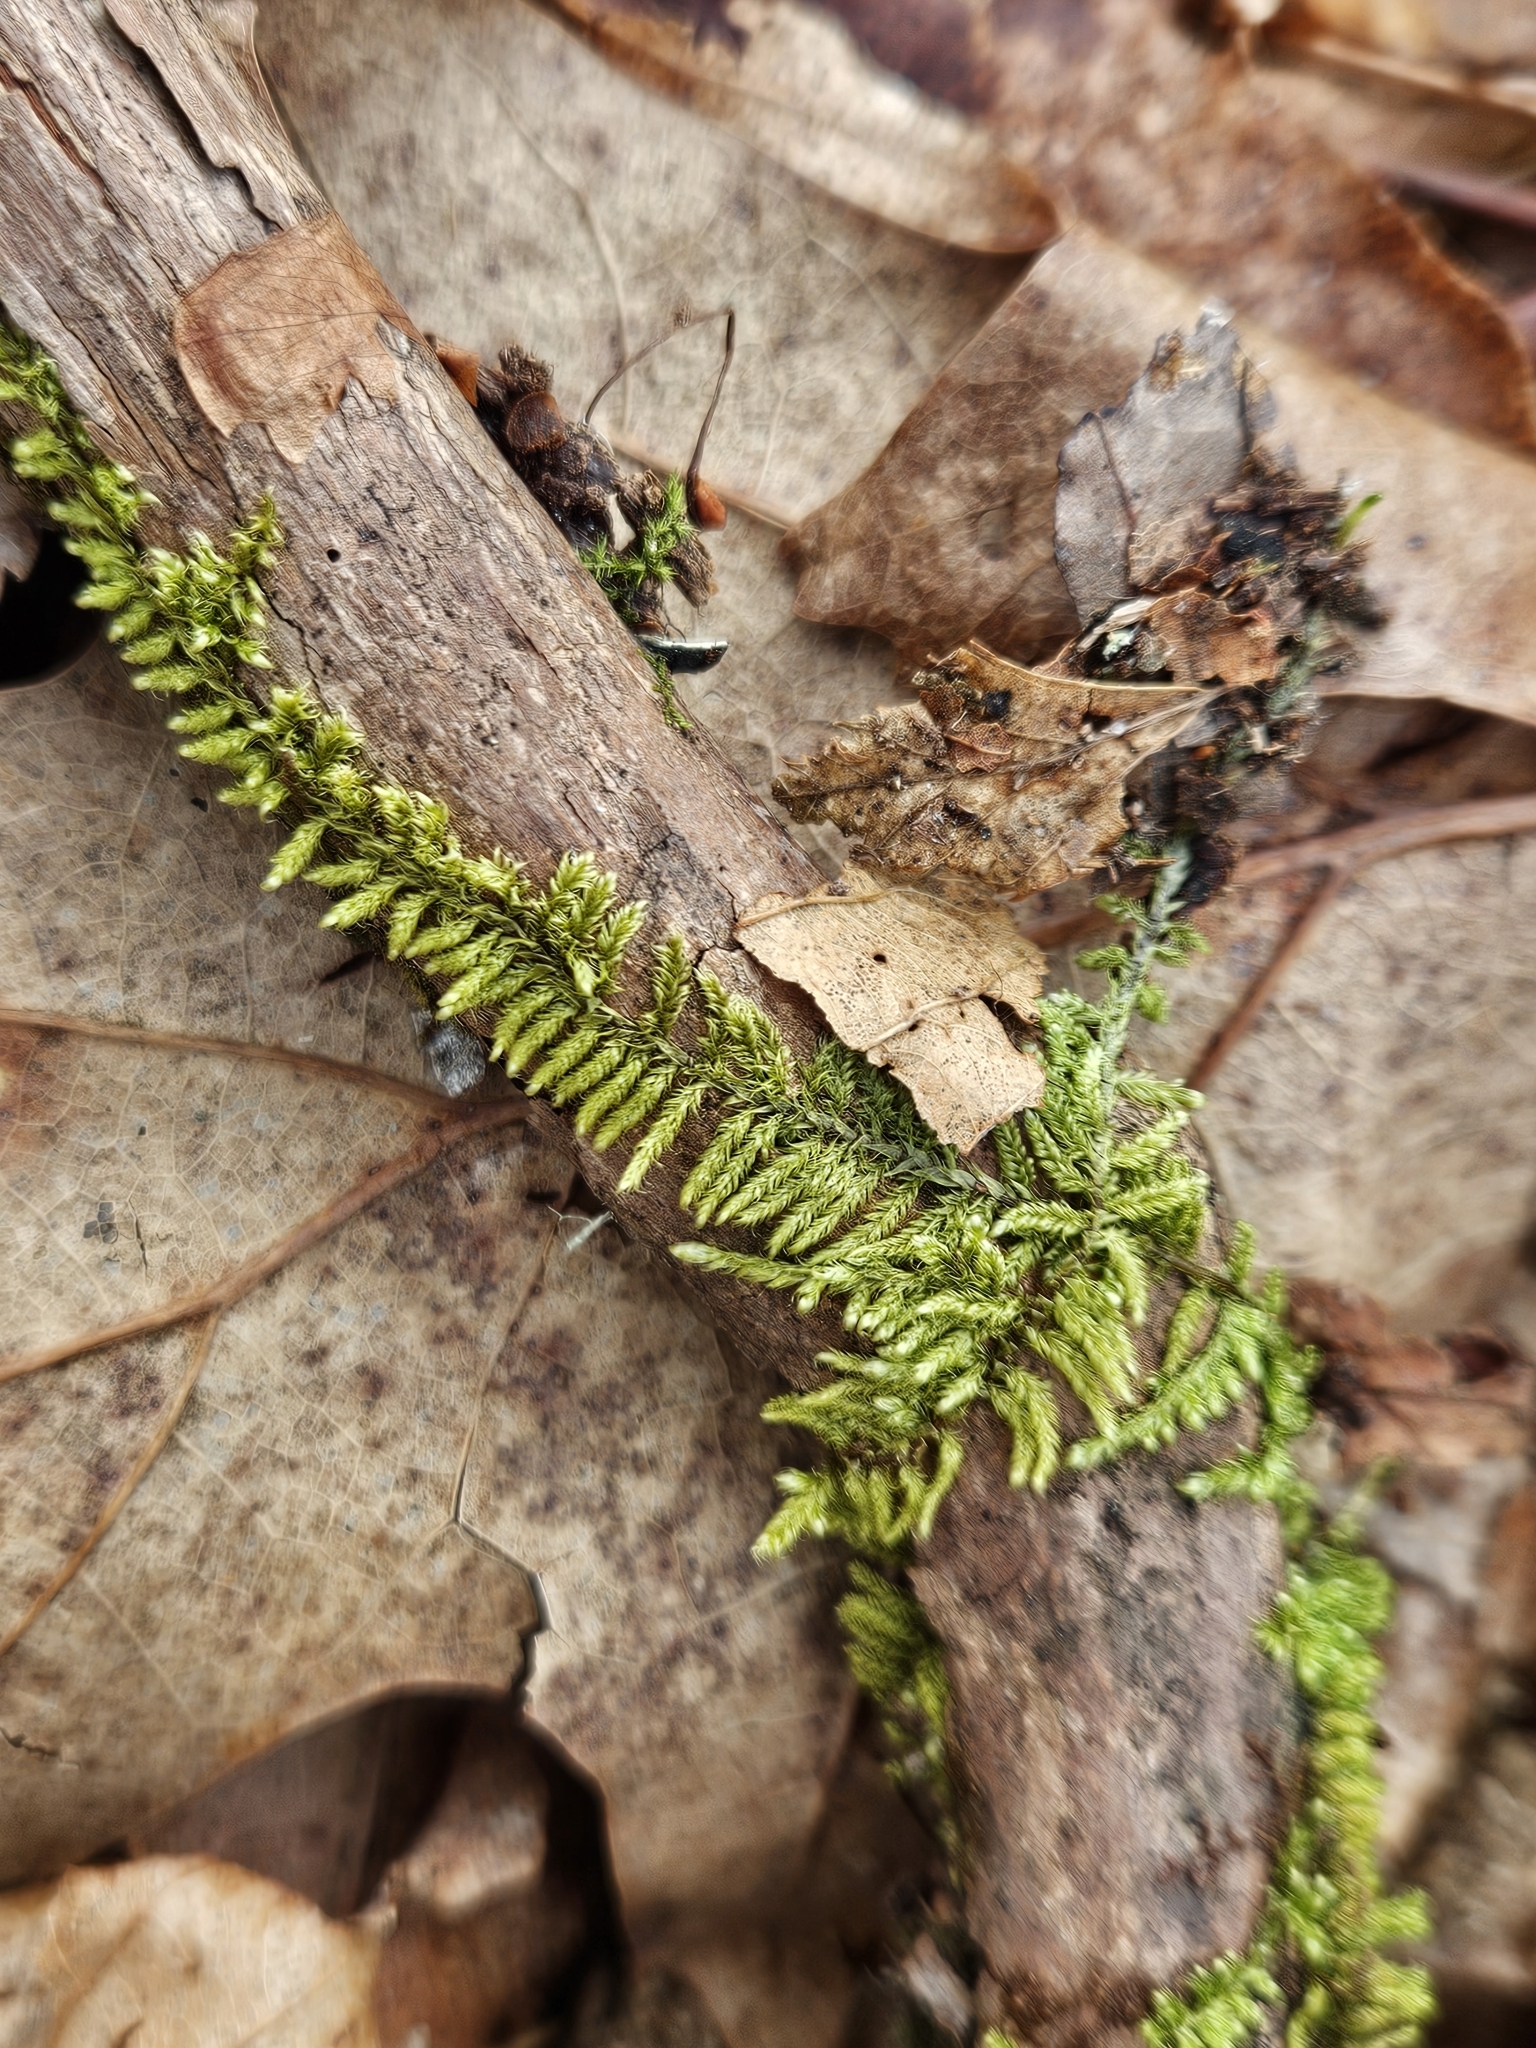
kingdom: Plantae
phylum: Bryophyta
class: Bryopsida
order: Hypnales
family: Callicladiaceae
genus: Callicladium
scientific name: Callicladium imponens
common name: Brocade moss
